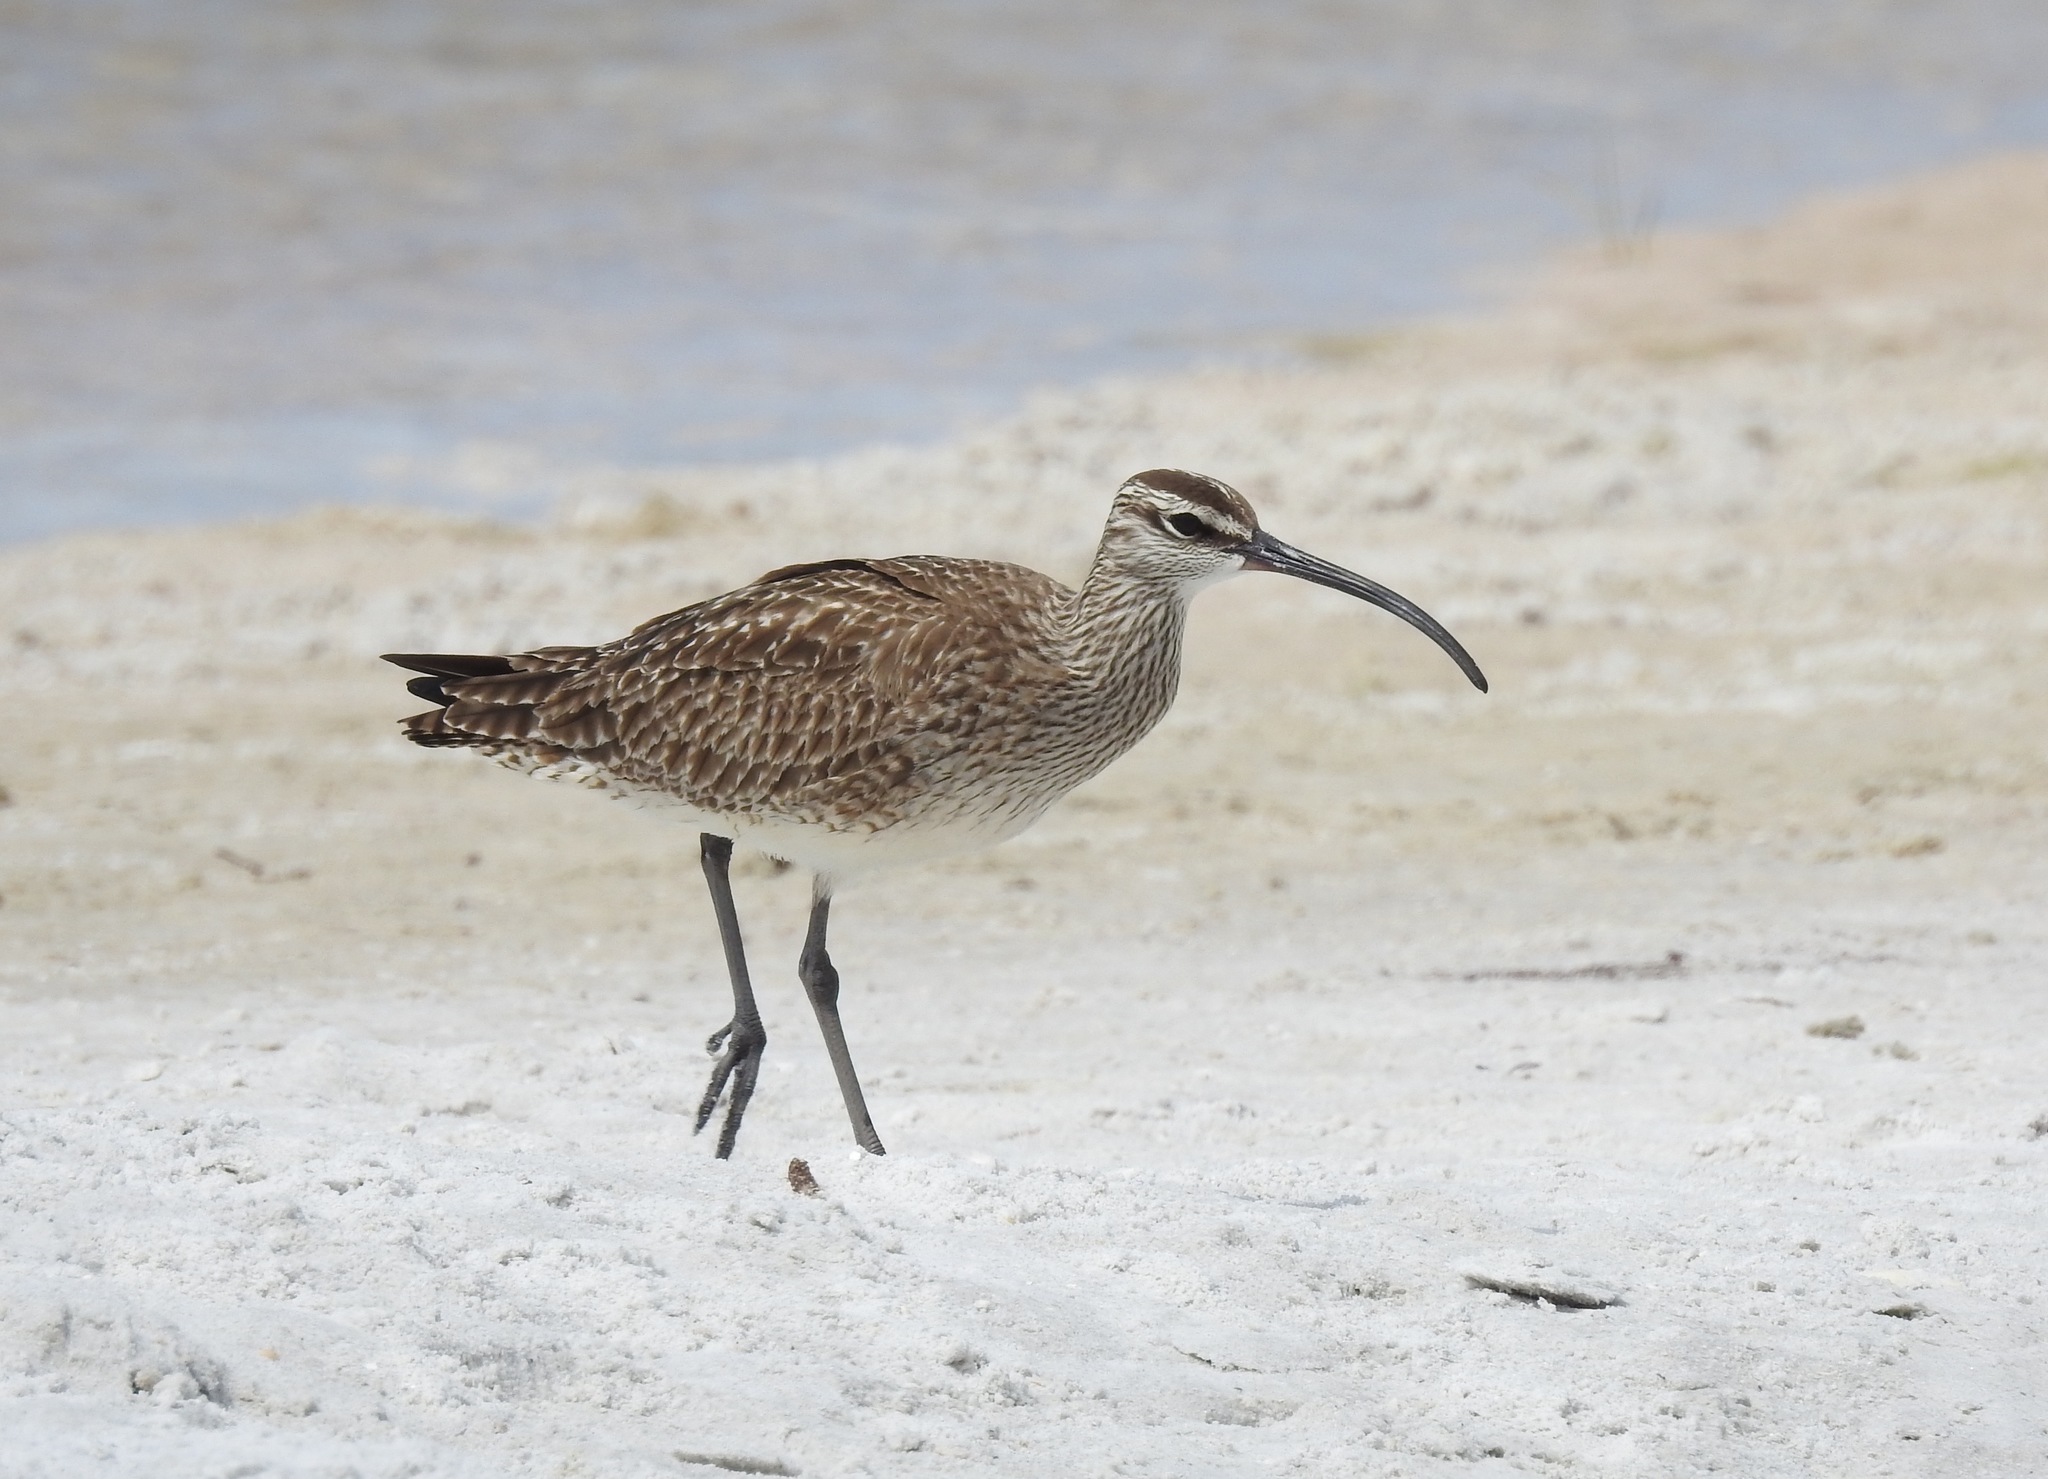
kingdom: Animalia
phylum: Chordata
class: Aves
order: Charadriiformes
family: Scolopacidae
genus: Numenius
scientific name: Numenius phaeopus
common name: Whimbrel
